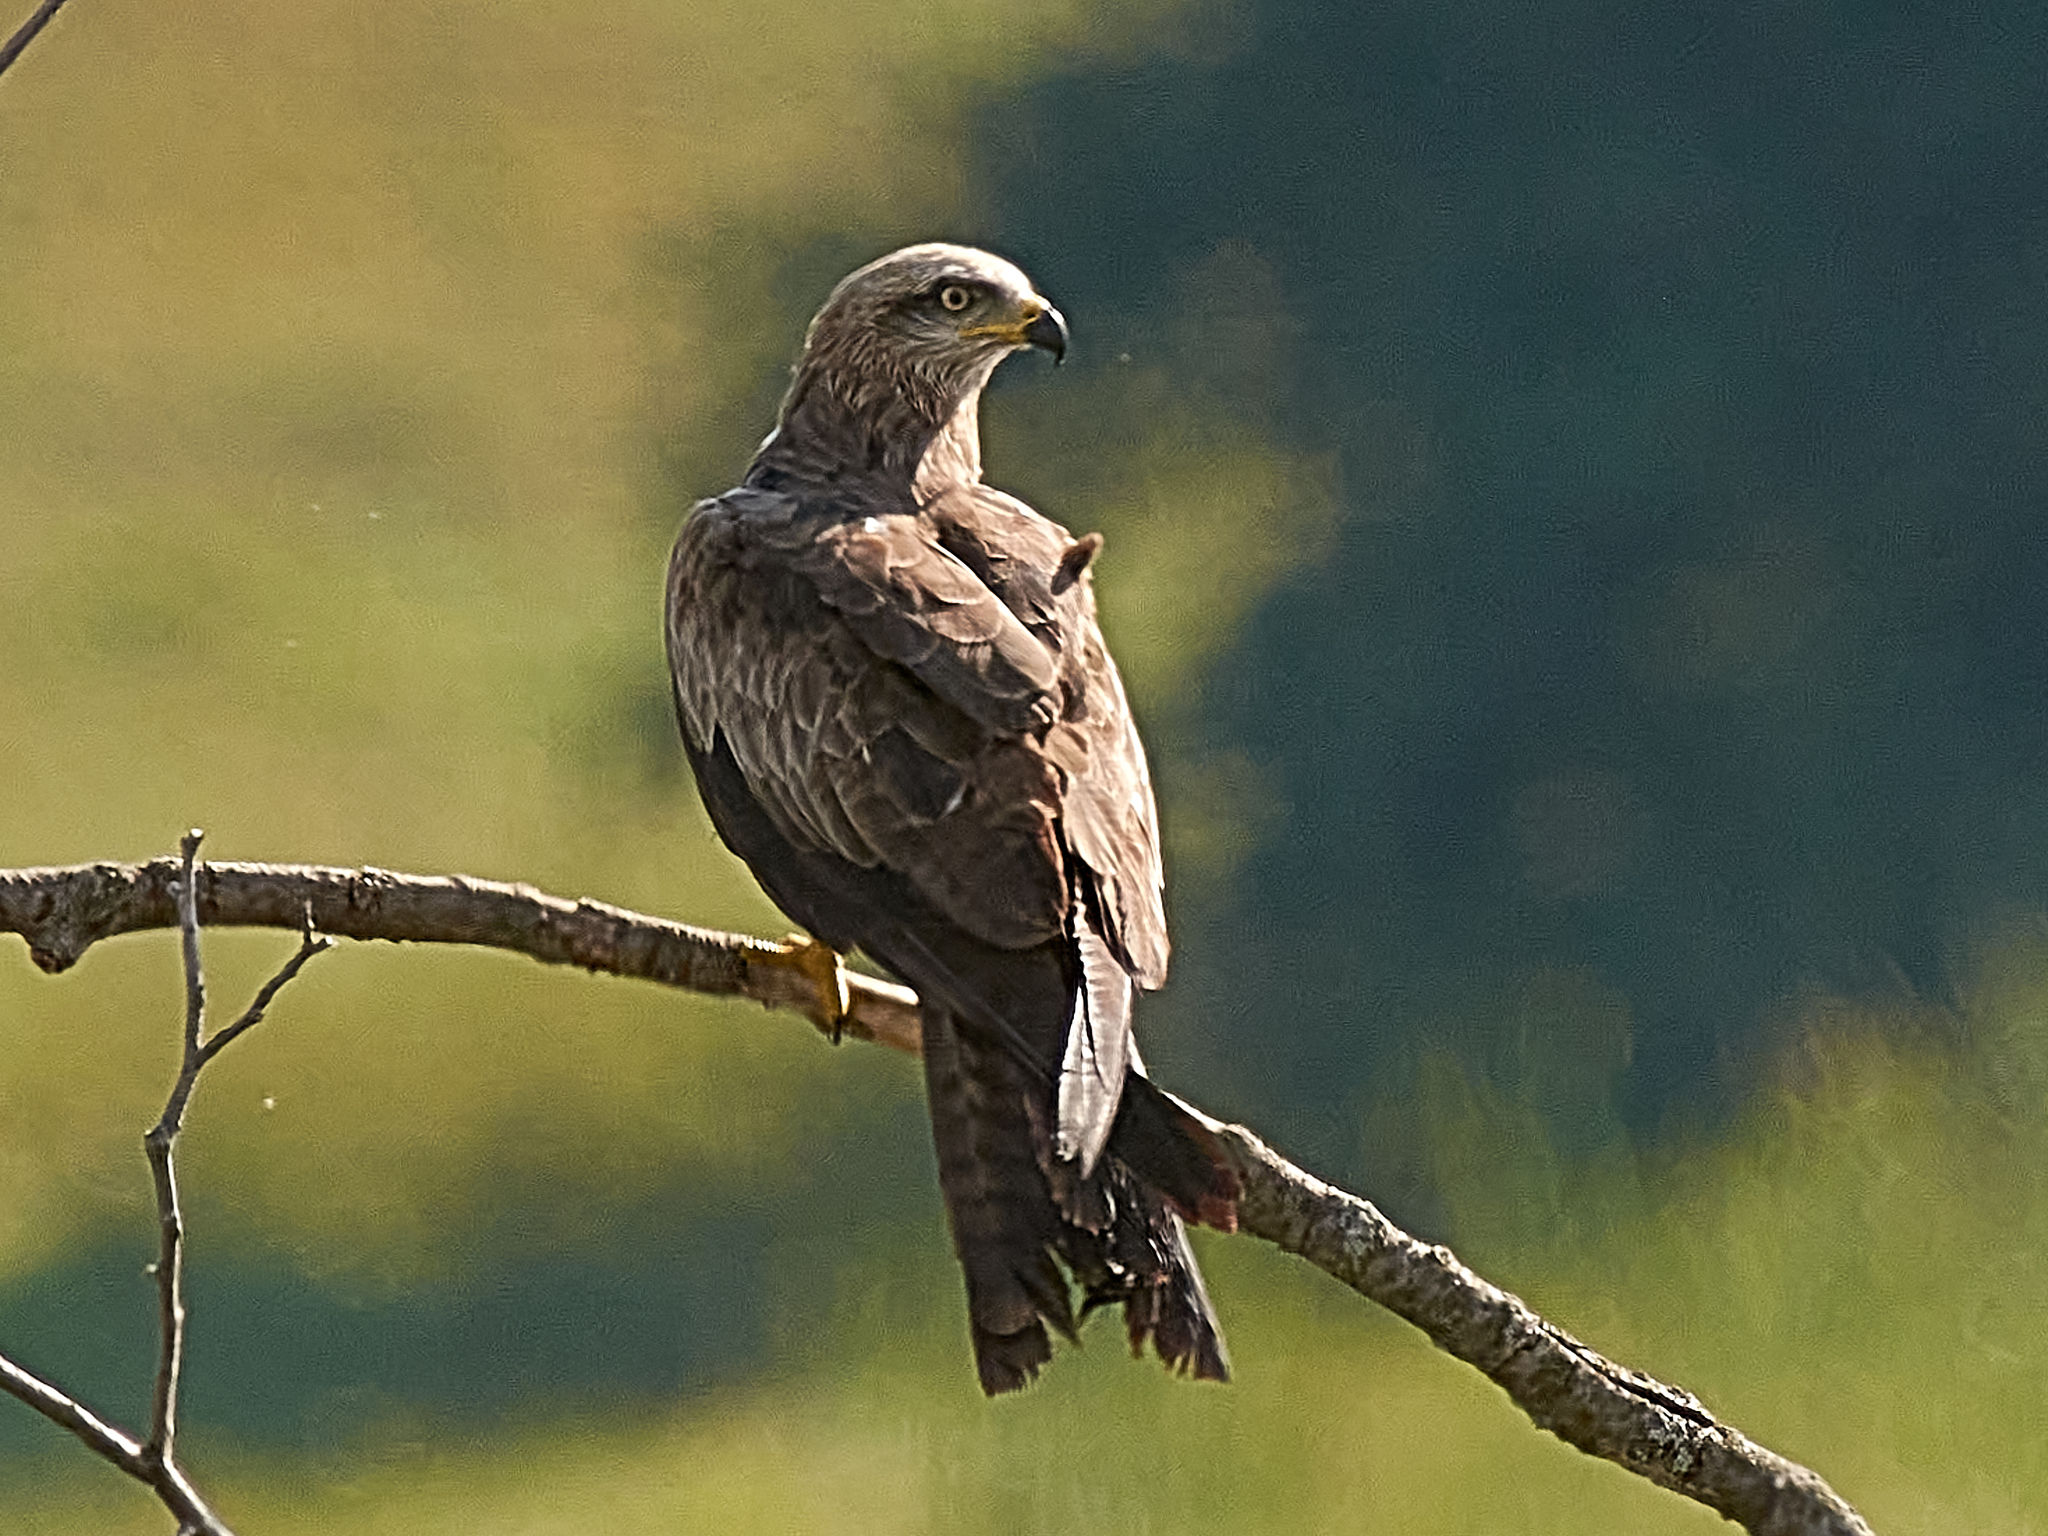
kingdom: Animalia
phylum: Chordata
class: Aves
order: Accipitriformes
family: Accipitridae
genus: Milvus
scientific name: Milvus migrans
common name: Black kite
